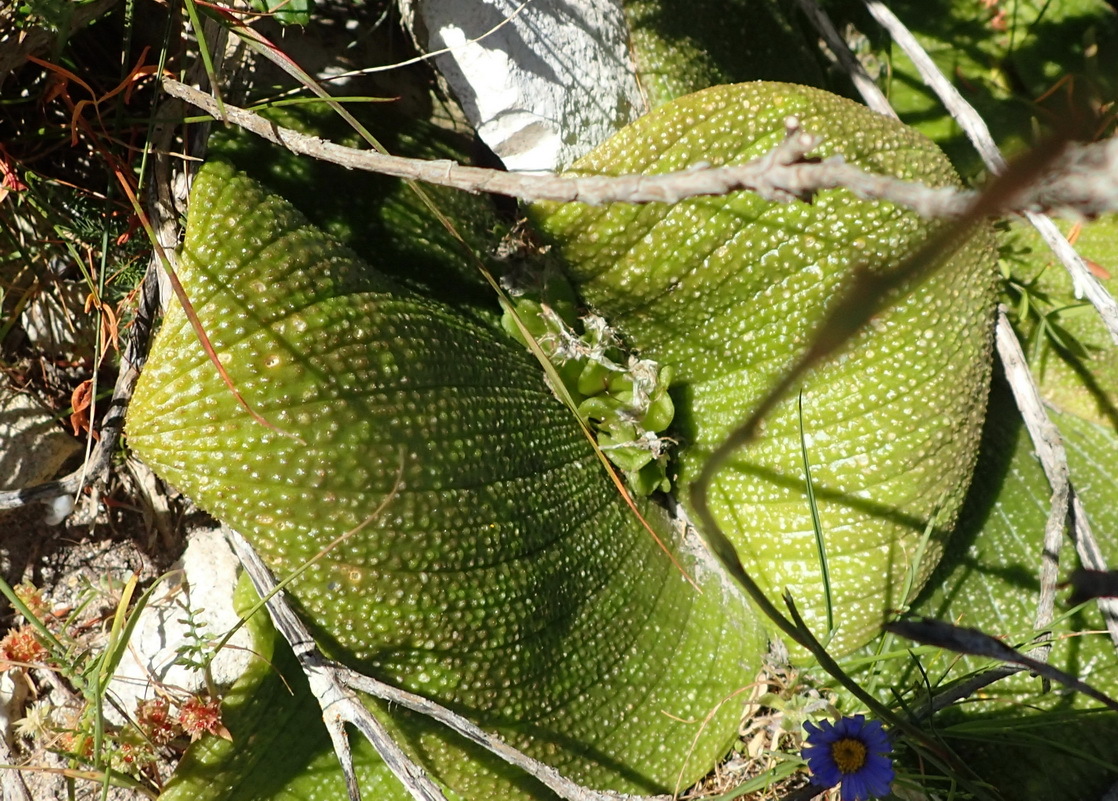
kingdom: Plantae
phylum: Tracheophyta
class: Liliopsida
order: Asparagales
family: Asparagaceae
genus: Massonia
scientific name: Massonia longipes
